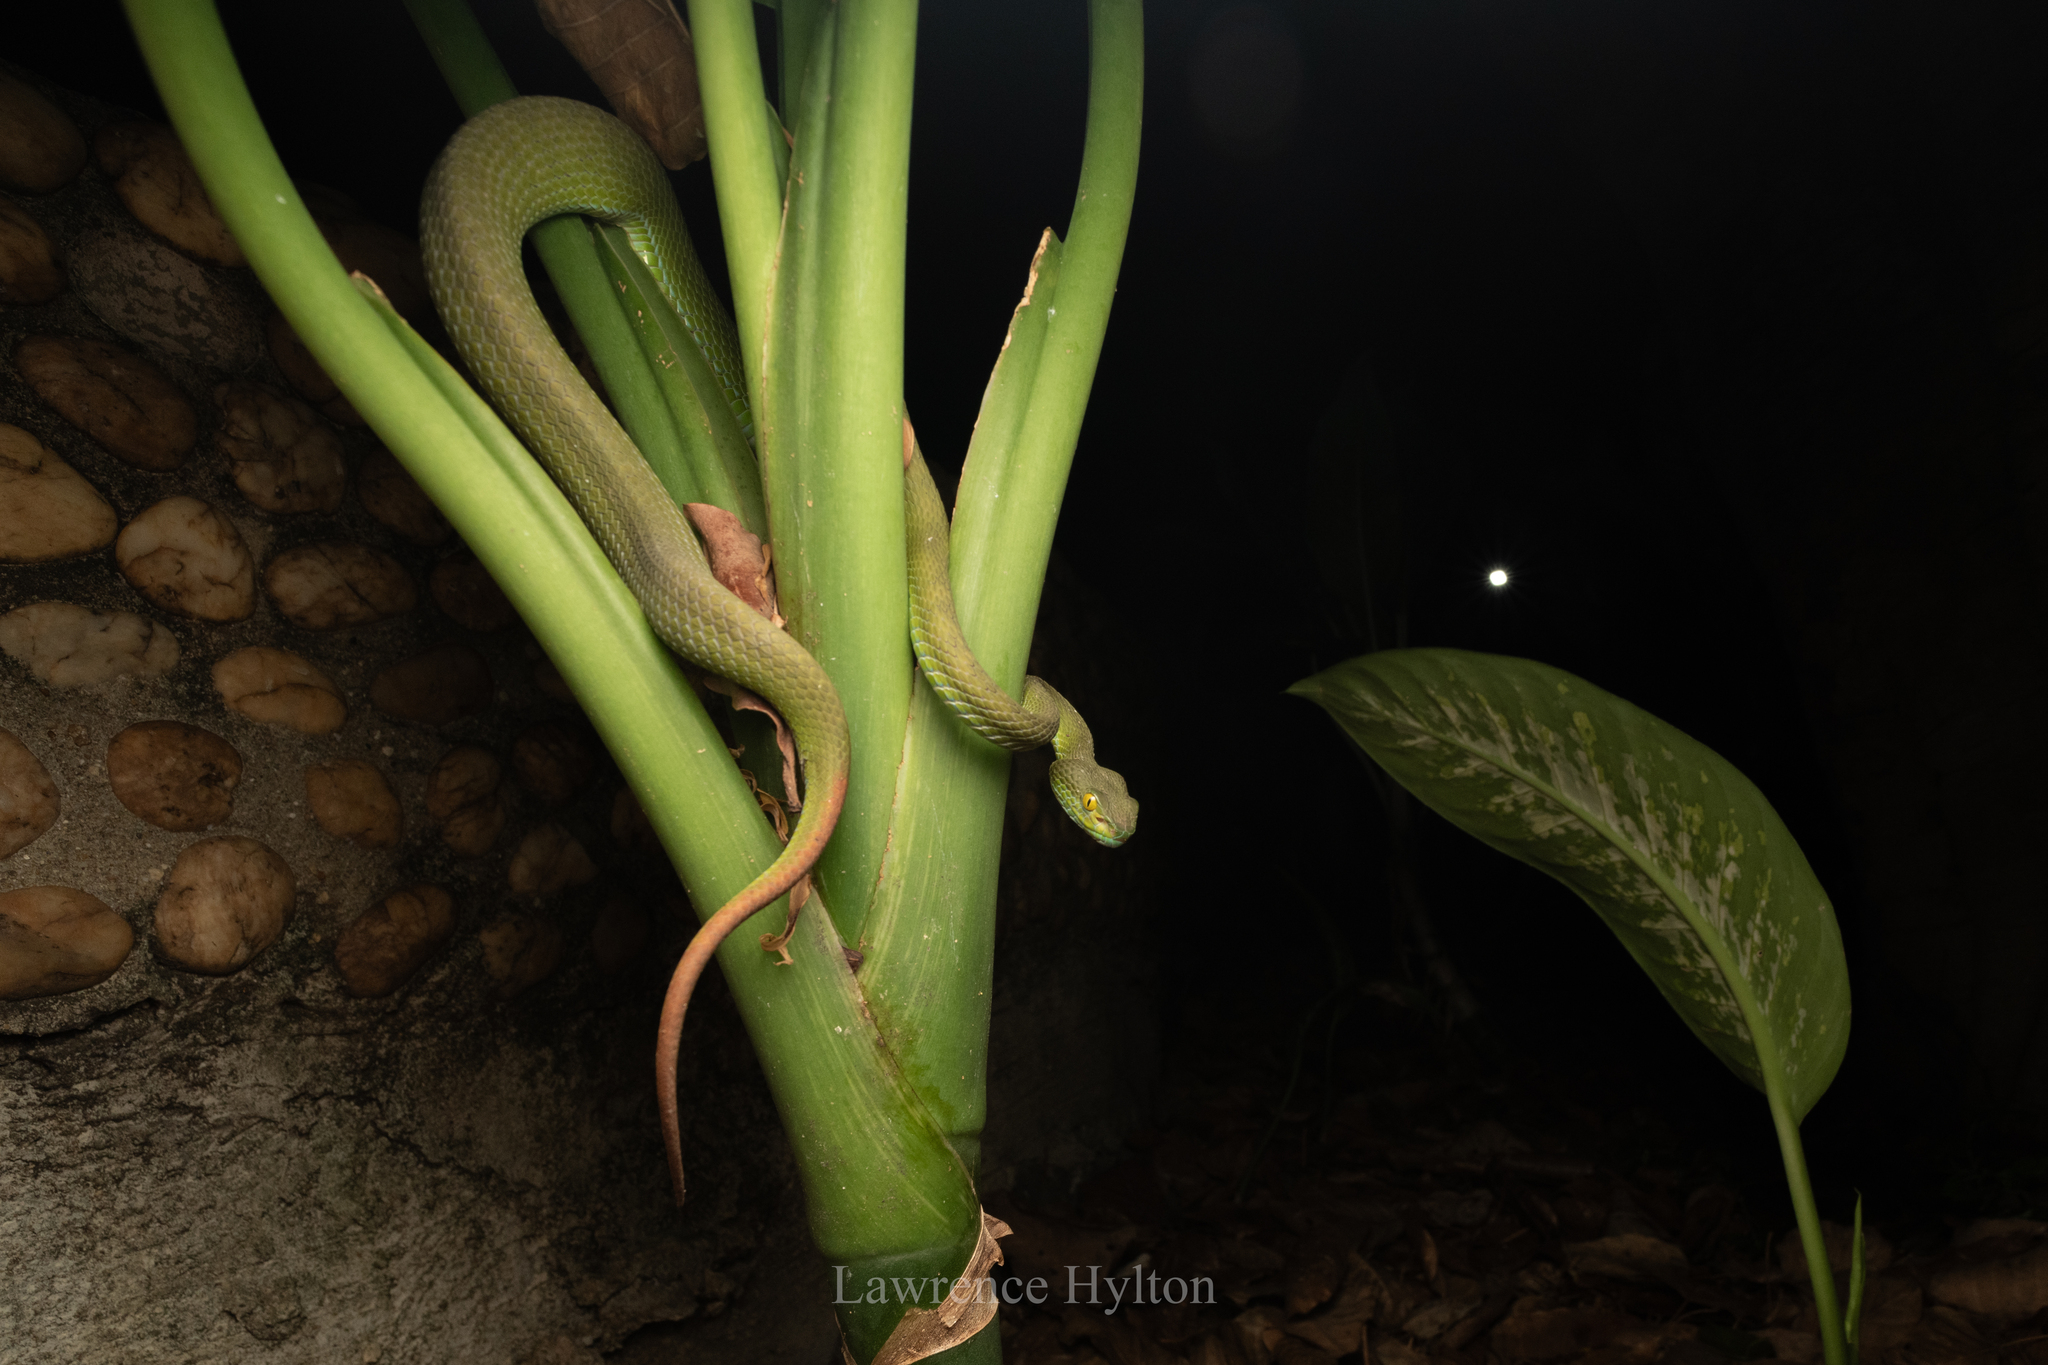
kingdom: Animalia
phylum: Chordata
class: Squamata
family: Viperidae
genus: Trimeresurus
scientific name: Trimeresurus macrops
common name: Kramer's pit viper
